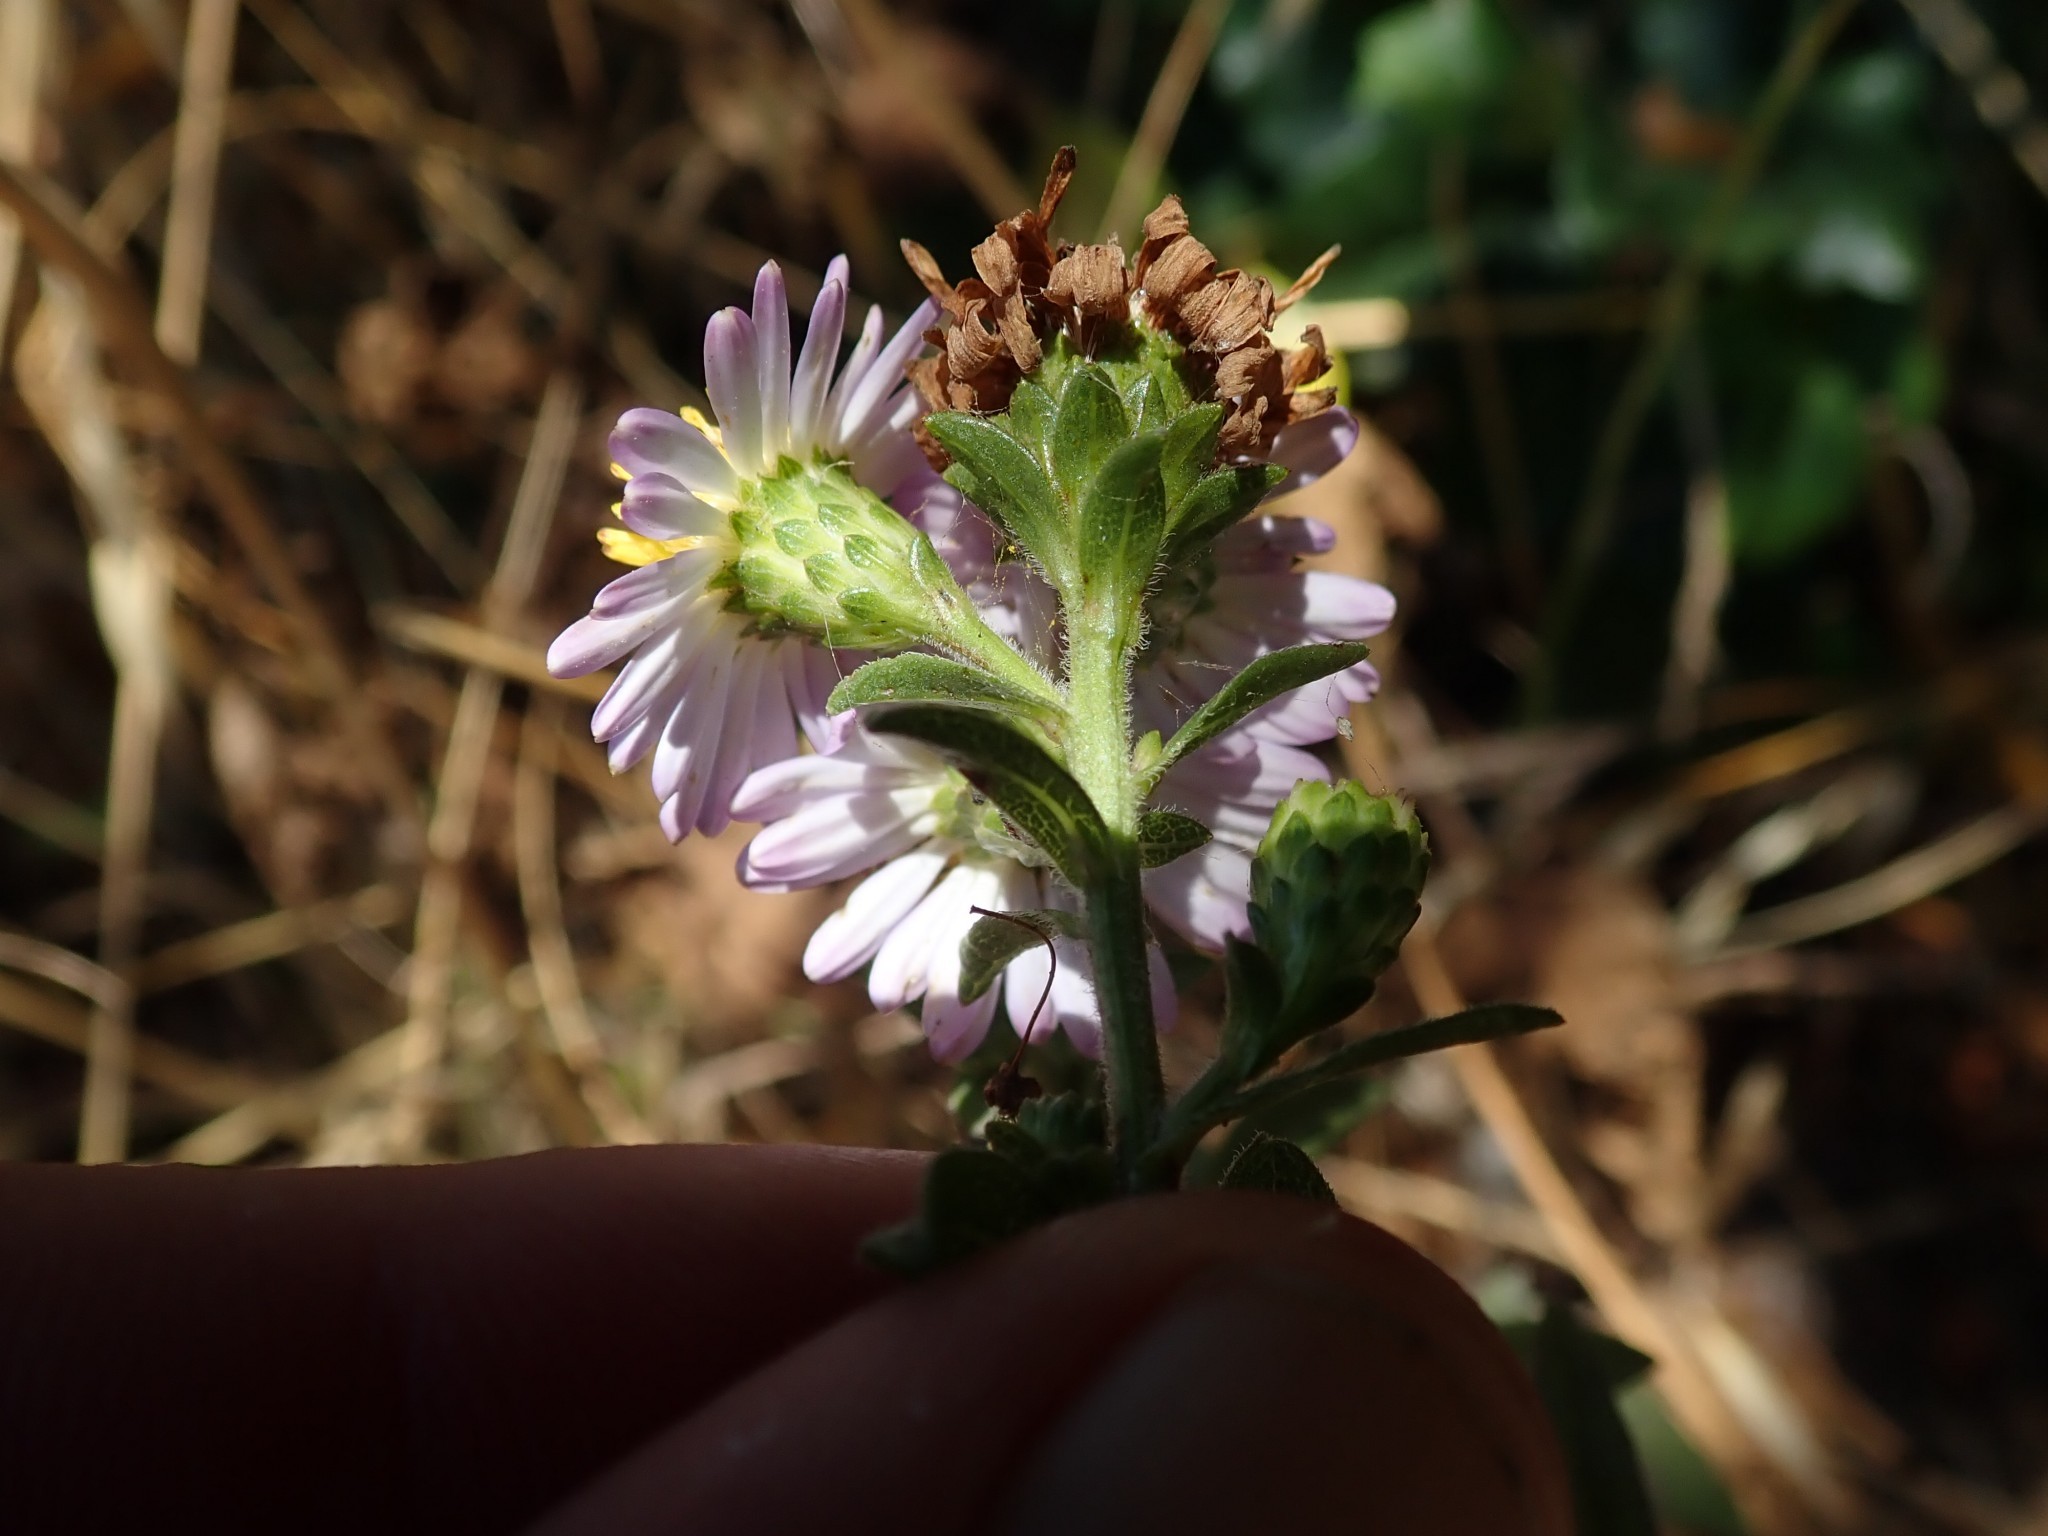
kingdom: Plantae
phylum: Tracheophyta
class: Magnoliopsida
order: Asterales
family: Asteraceae
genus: Symphyotrichum
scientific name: Symphyotrichum chilense
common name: Pacific aster
